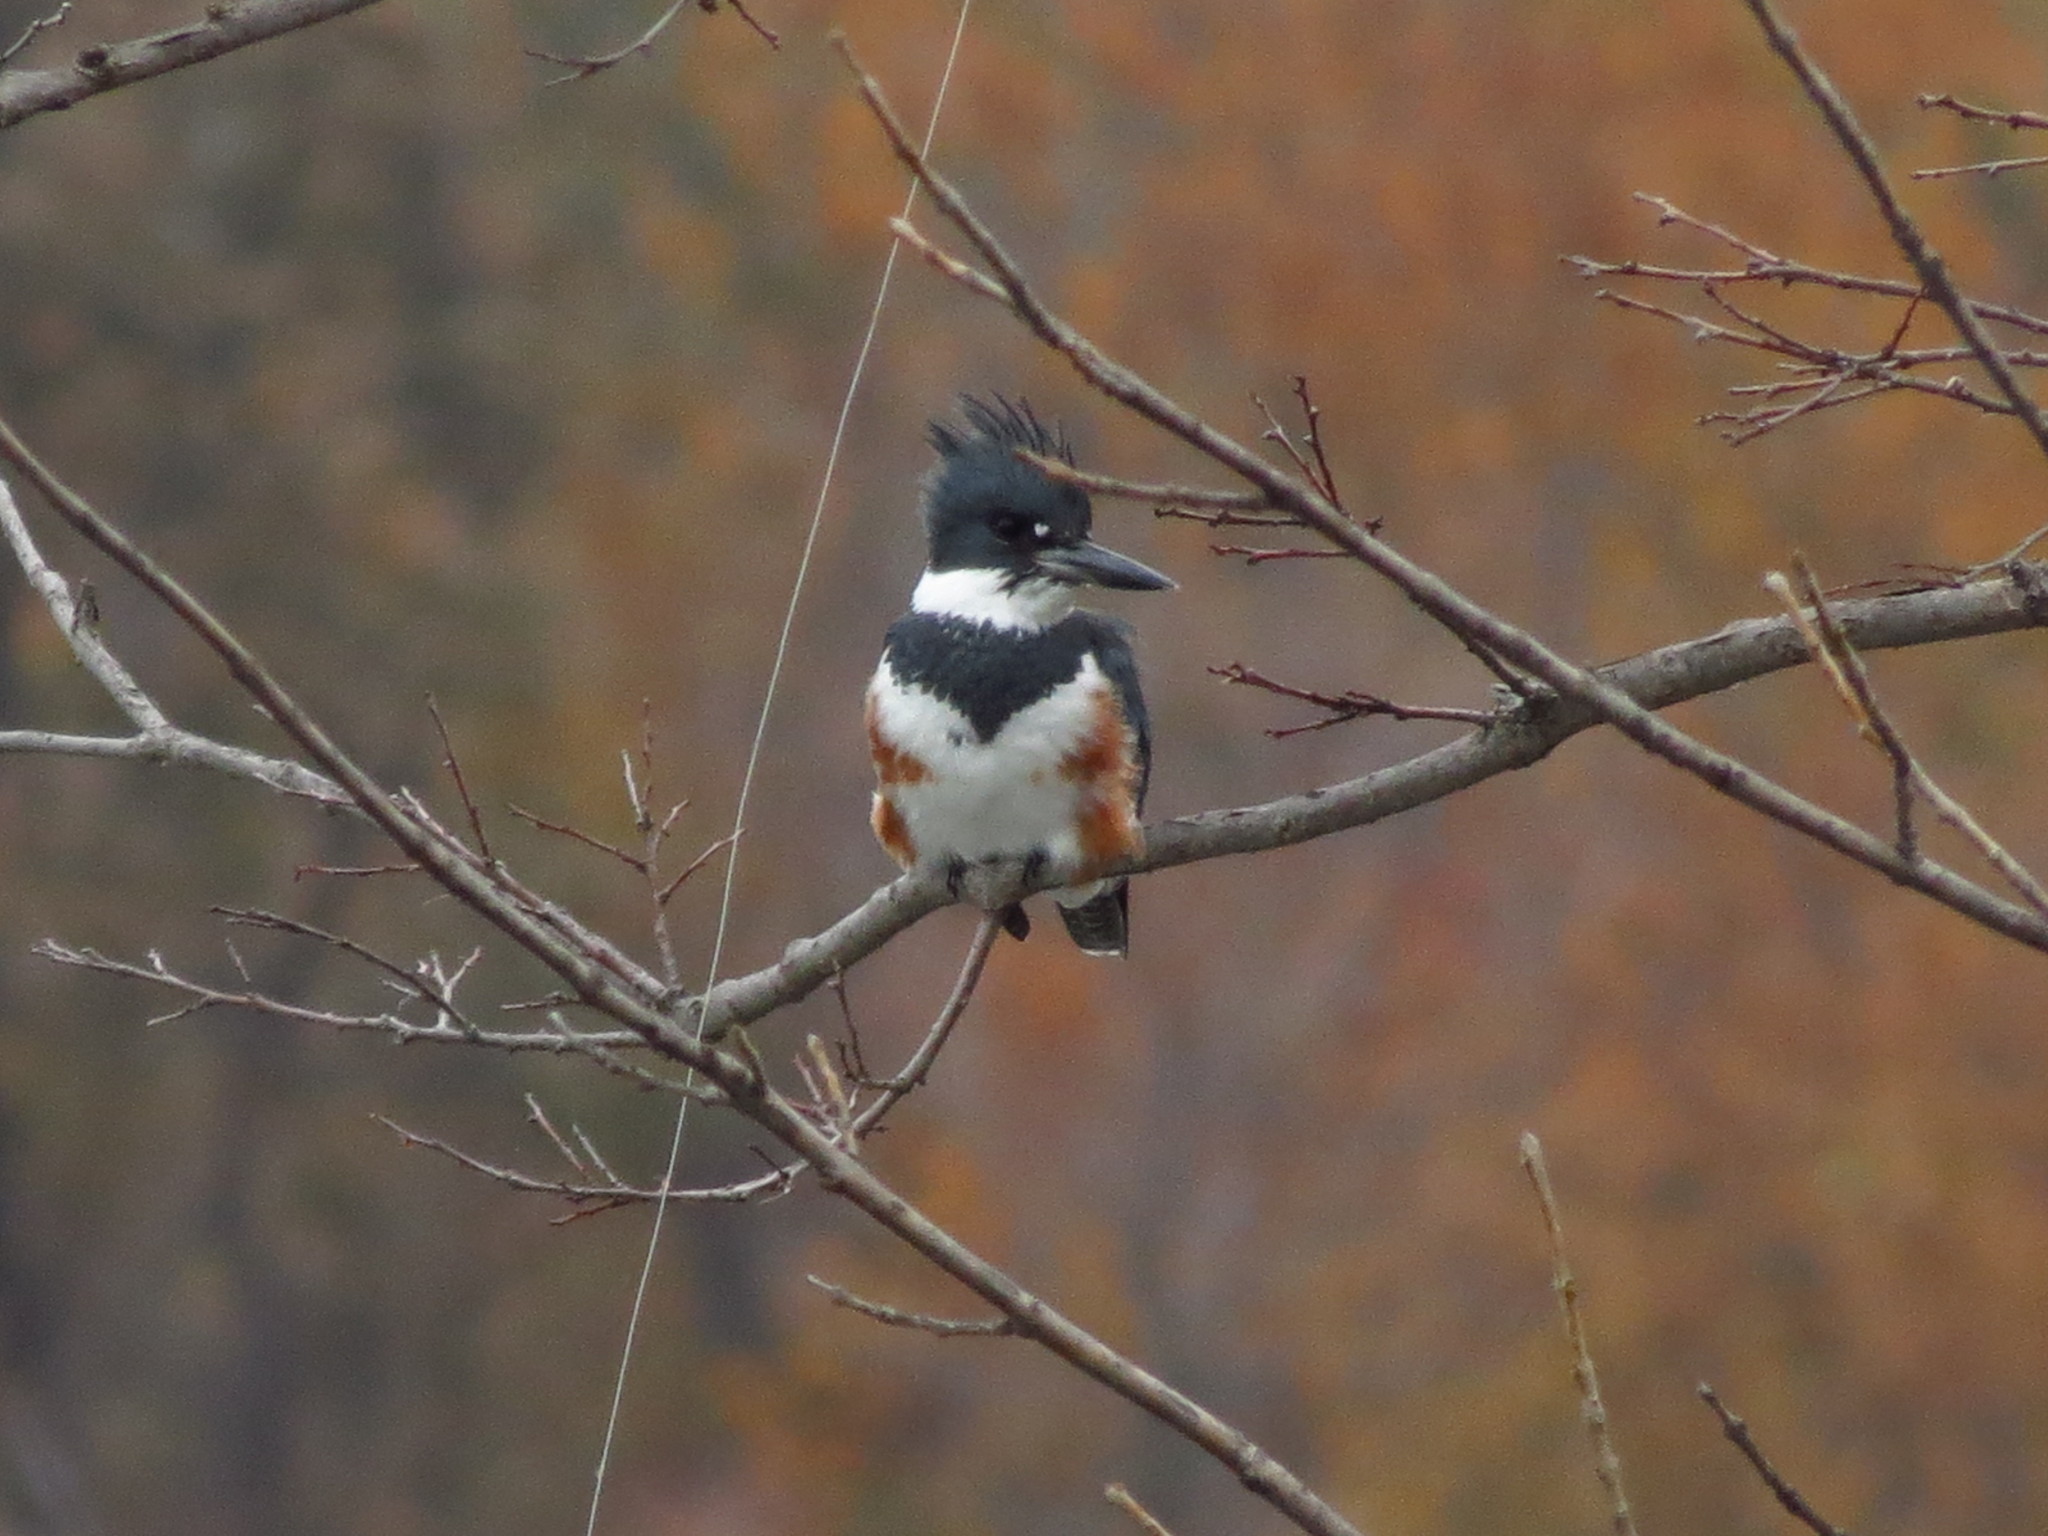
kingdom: Animalia
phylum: Chordata
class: Aves
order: Coraciiformes
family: Alcedinidae
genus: Megaceryle
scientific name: Megaceryle alcyon
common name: Belted kingfisher
